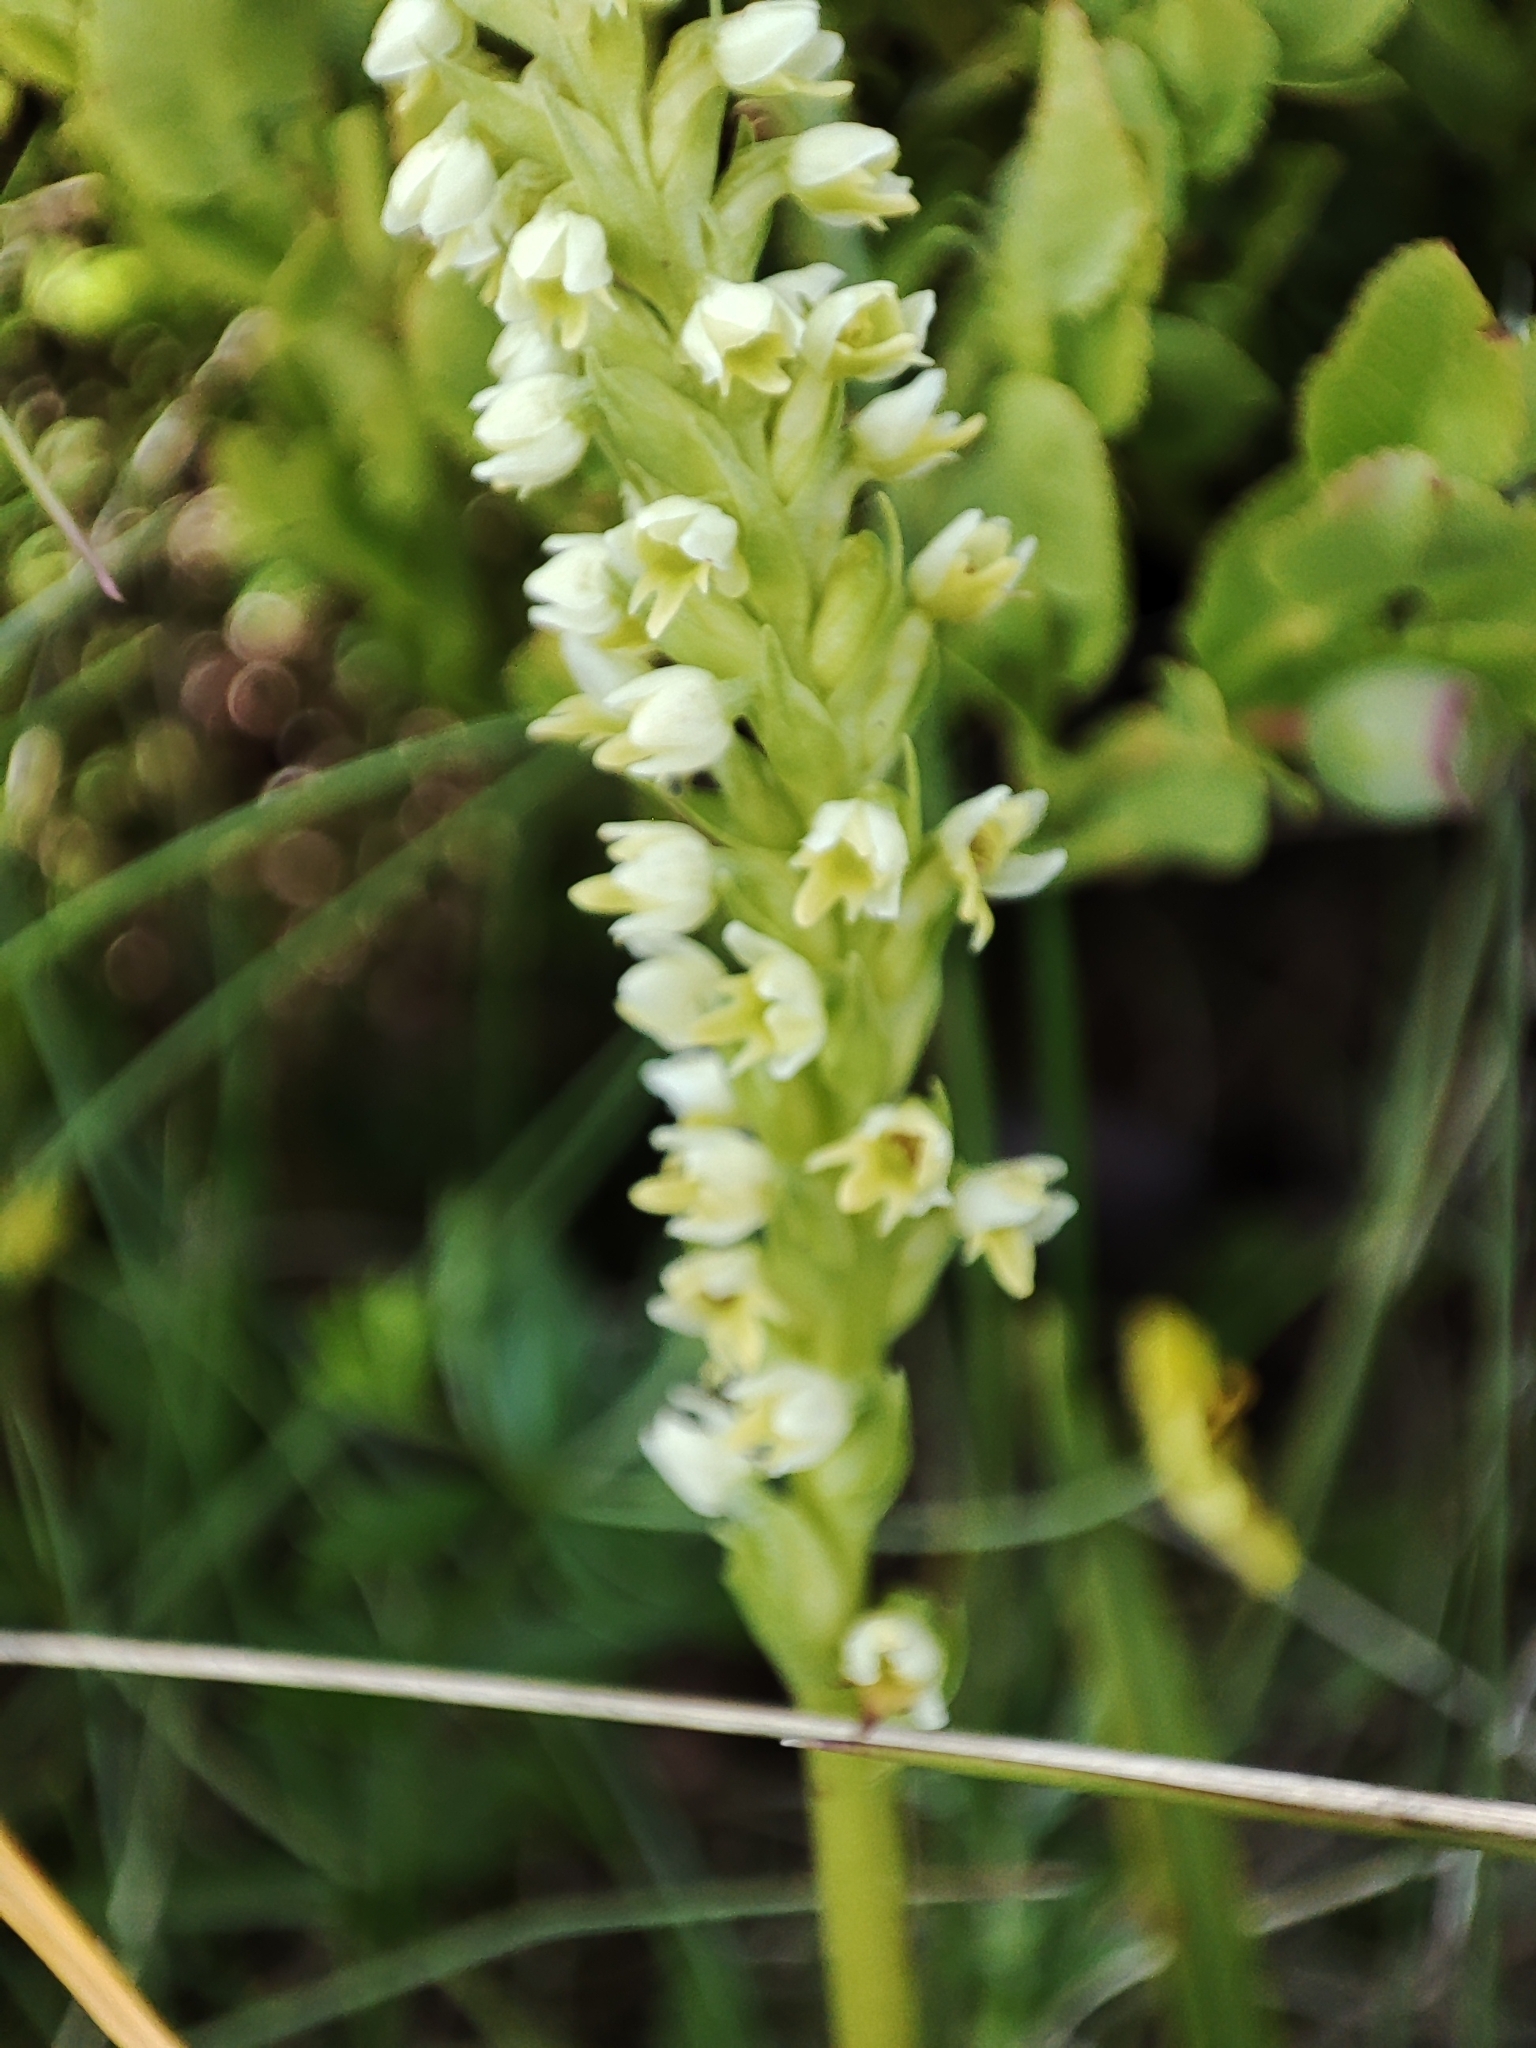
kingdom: Plantae
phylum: Tracheophyta
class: Liliopsida
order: Asparagales
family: Orchidaceae
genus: Pseudorchis
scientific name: Pseudorchis albida
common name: Small-white orchid
